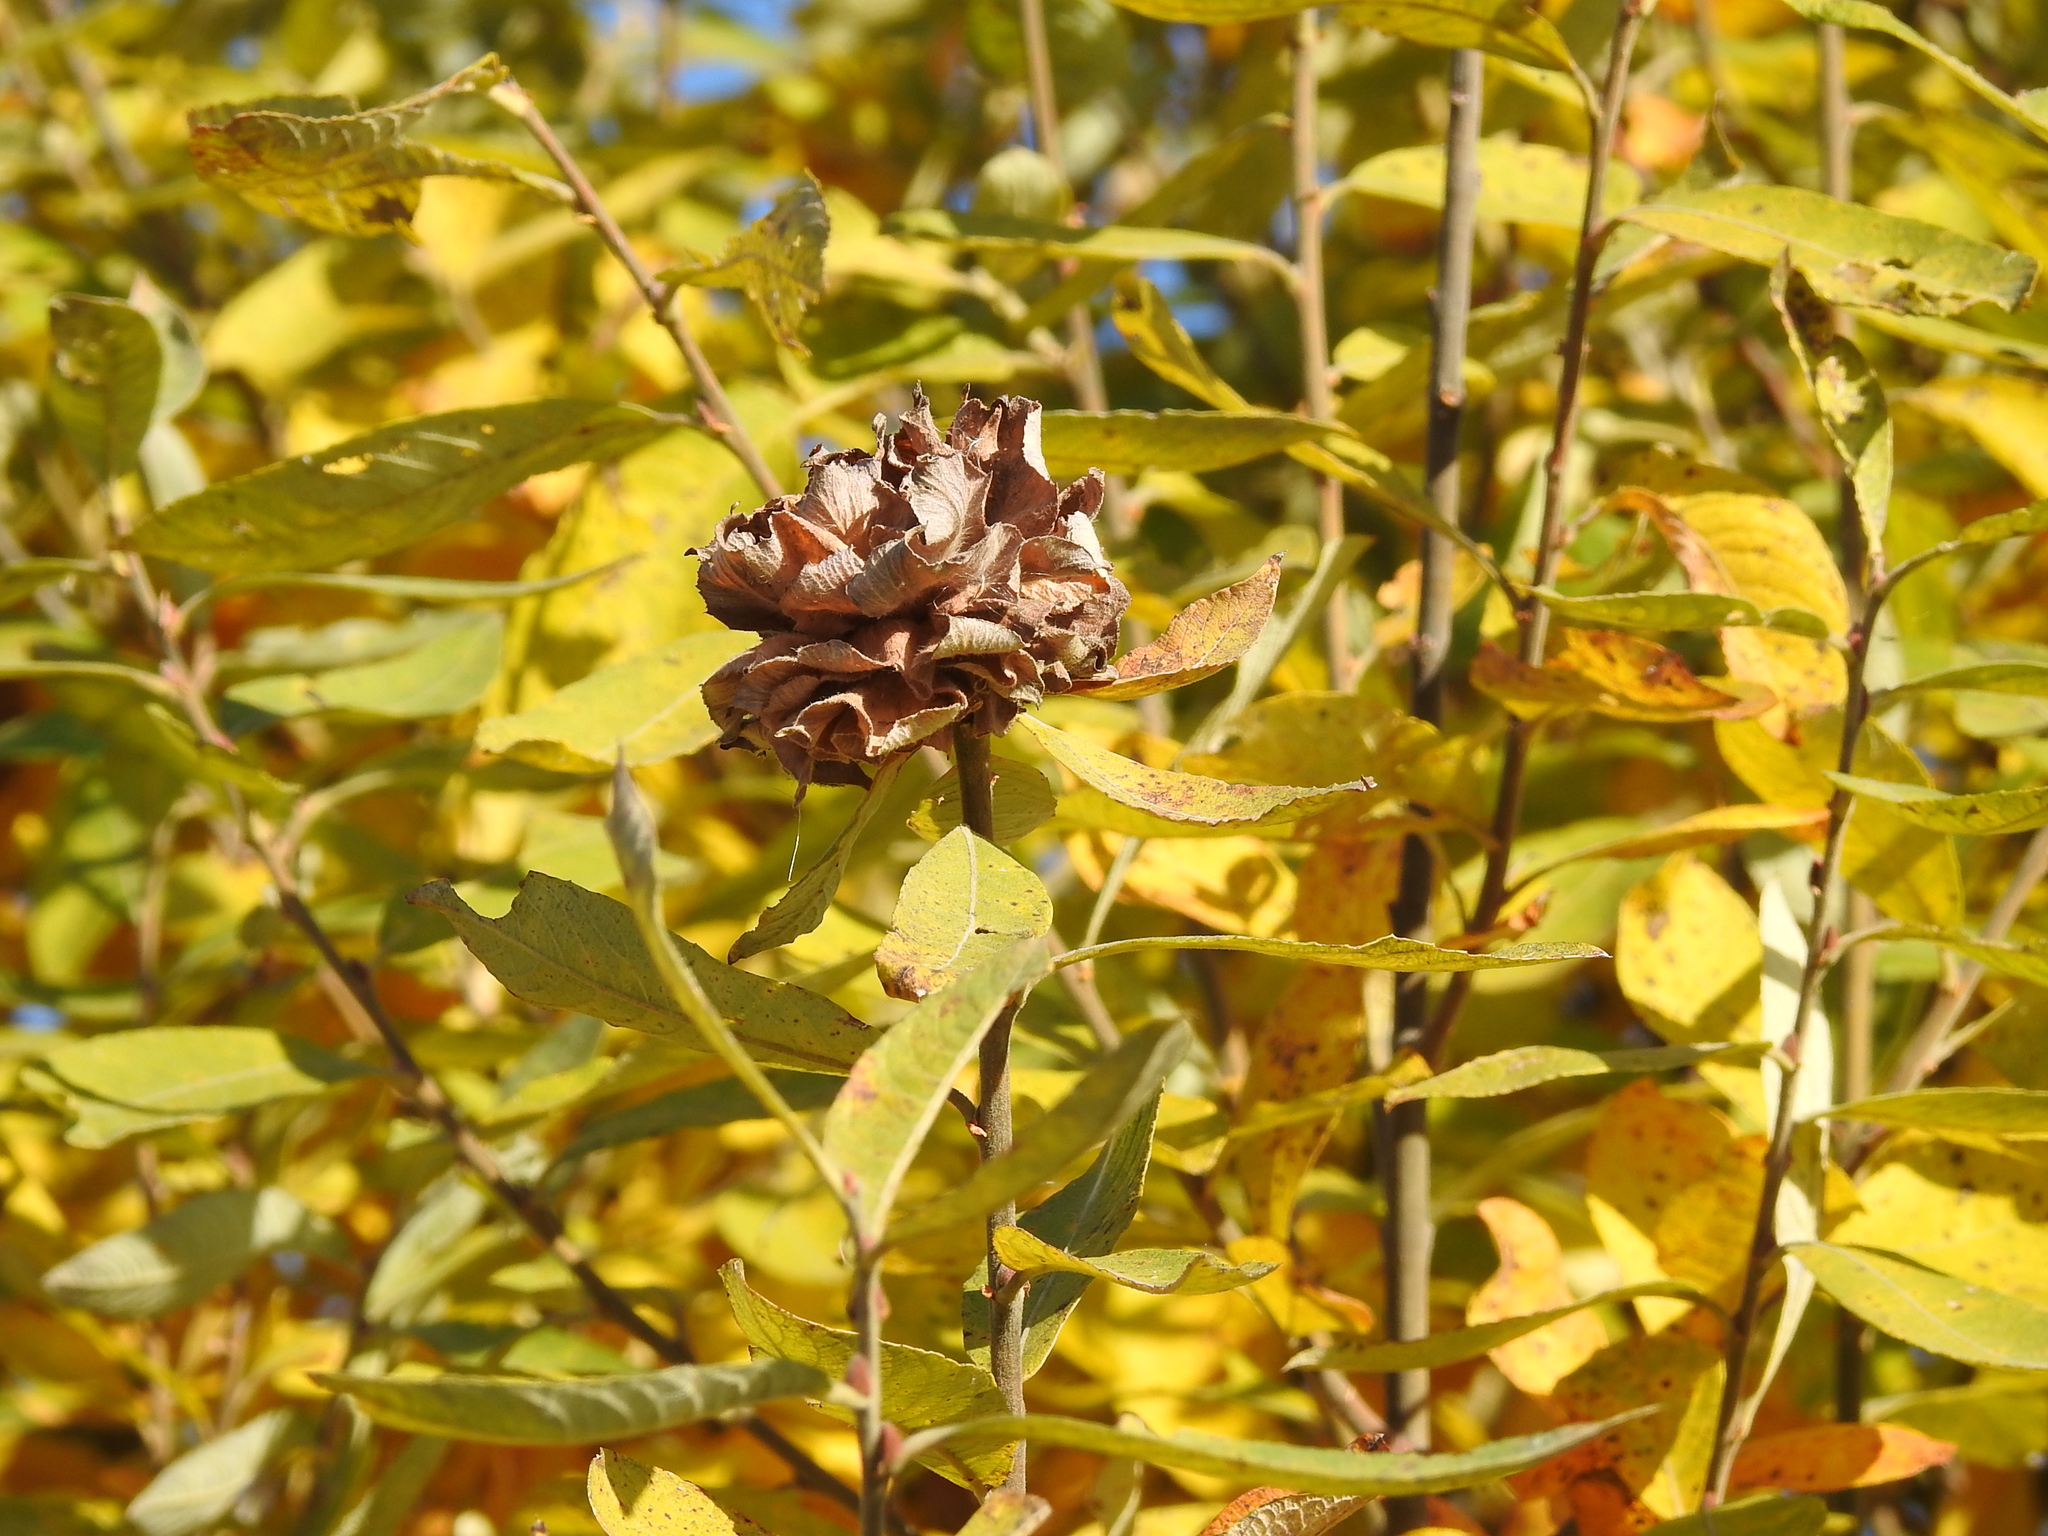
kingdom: Animalia
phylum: Arthropoda
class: Insecta
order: Diptera
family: Cecidomyiidae
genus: Rabdophaga
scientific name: Rabdophaga rosaria
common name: Willow rose gall midge
